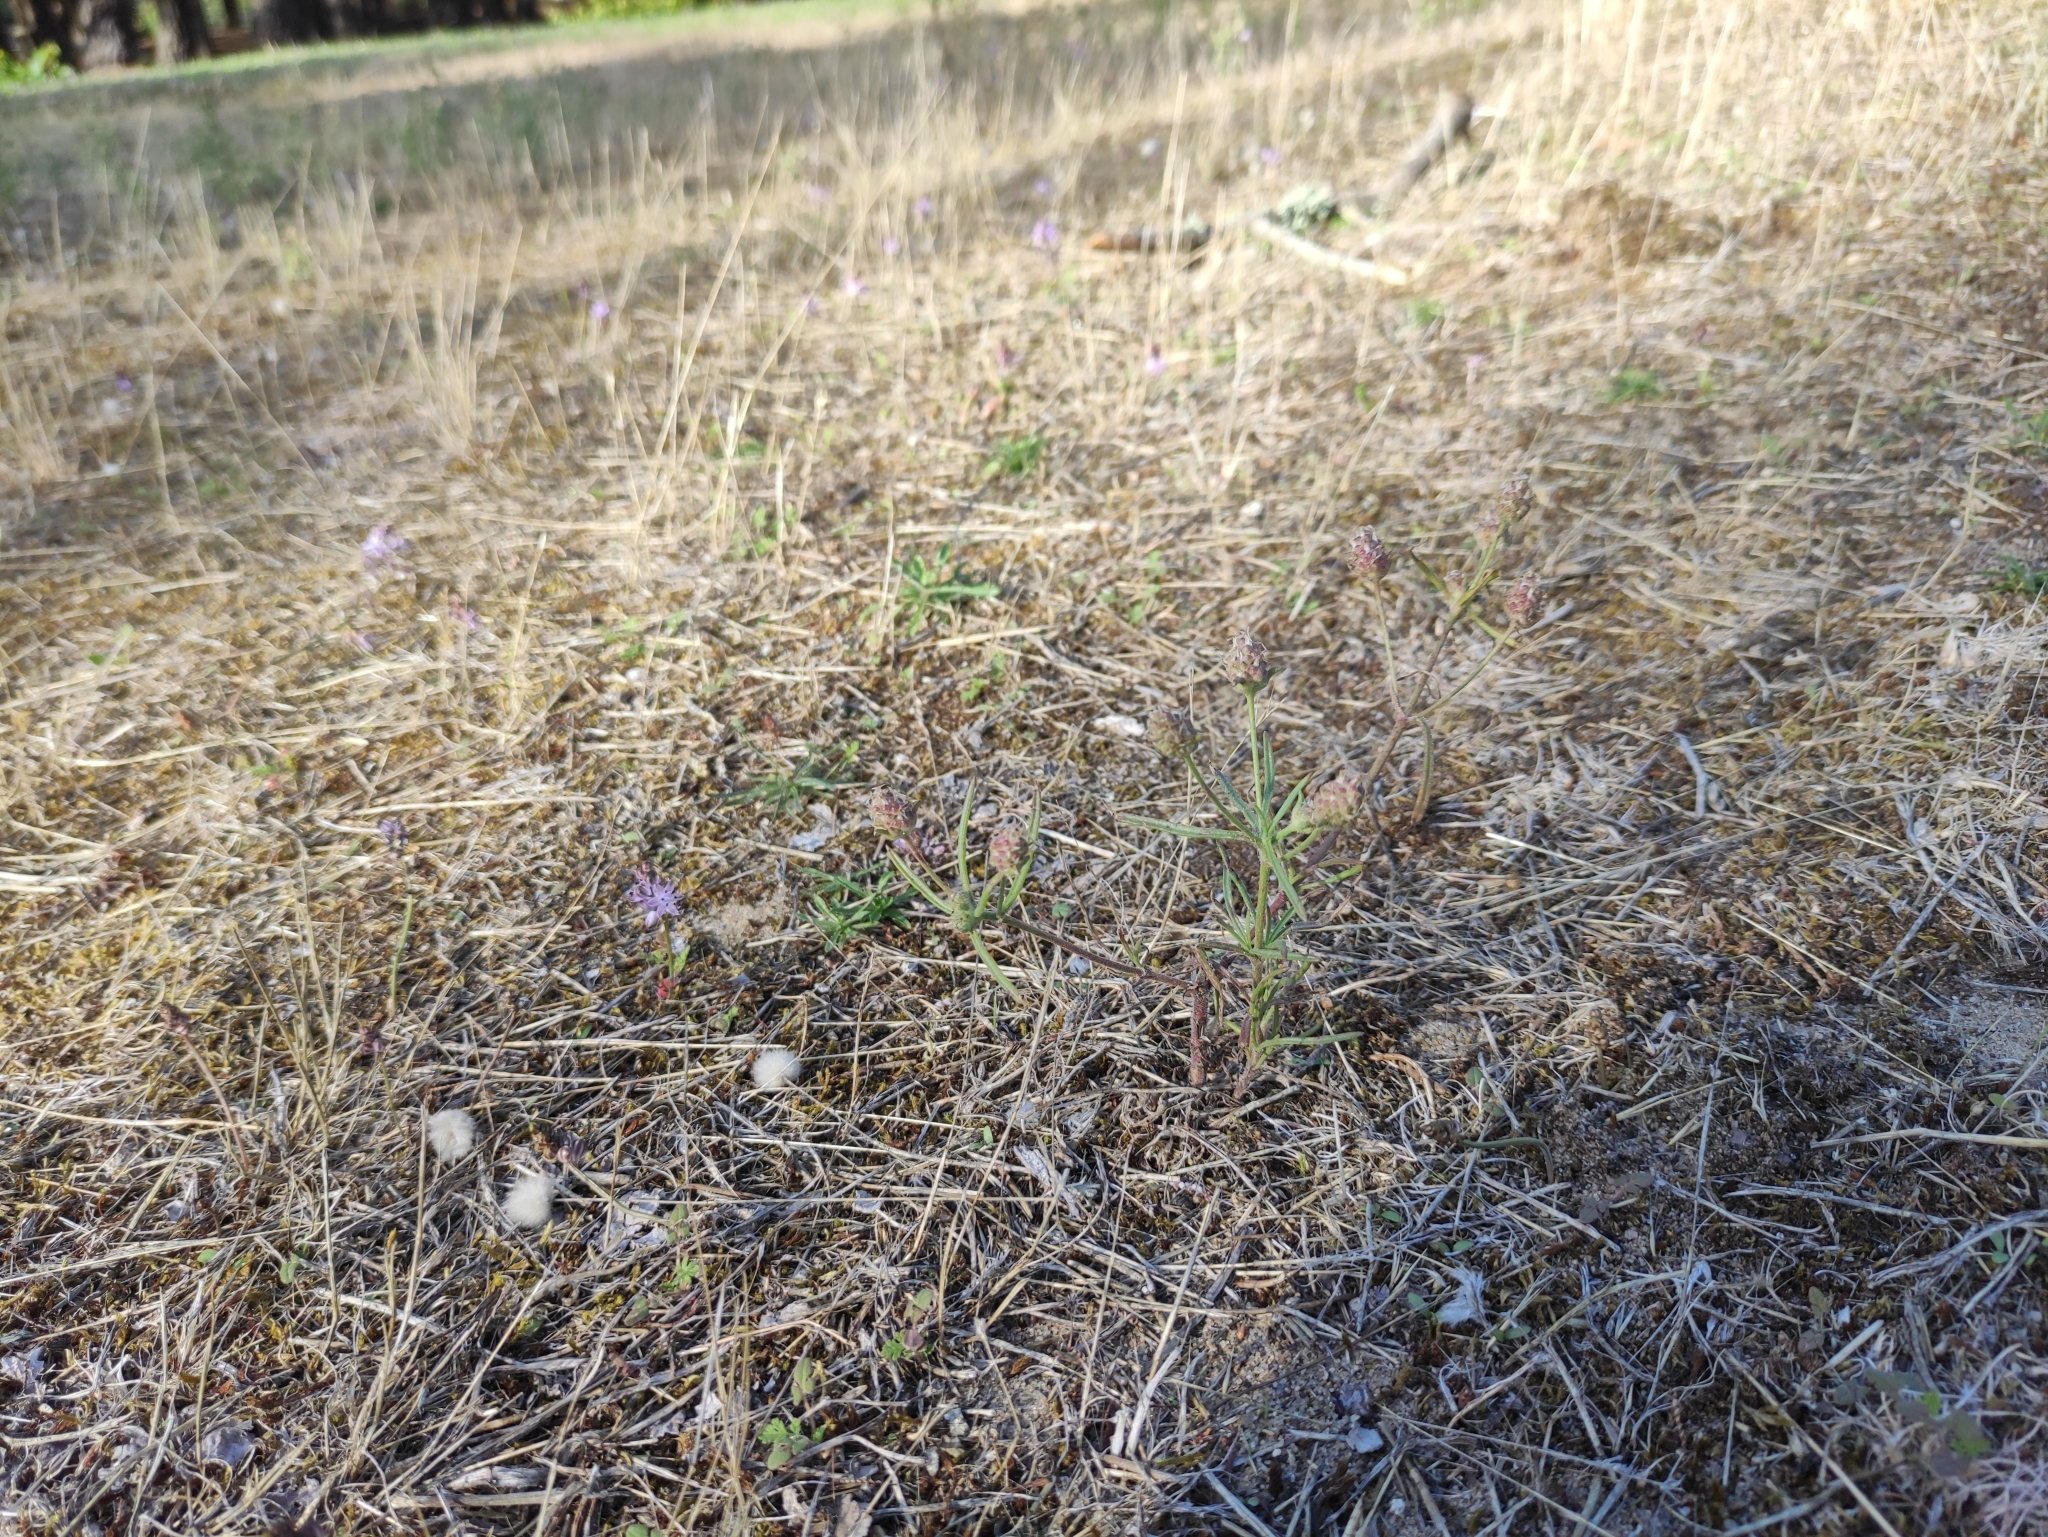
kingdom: Plantae
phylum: Tracheophyta
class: Magnoliopsida
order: Lamiales
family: Plantaginaceae
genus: Plantago
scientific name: Plantago arenaria
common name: Branched plantain
